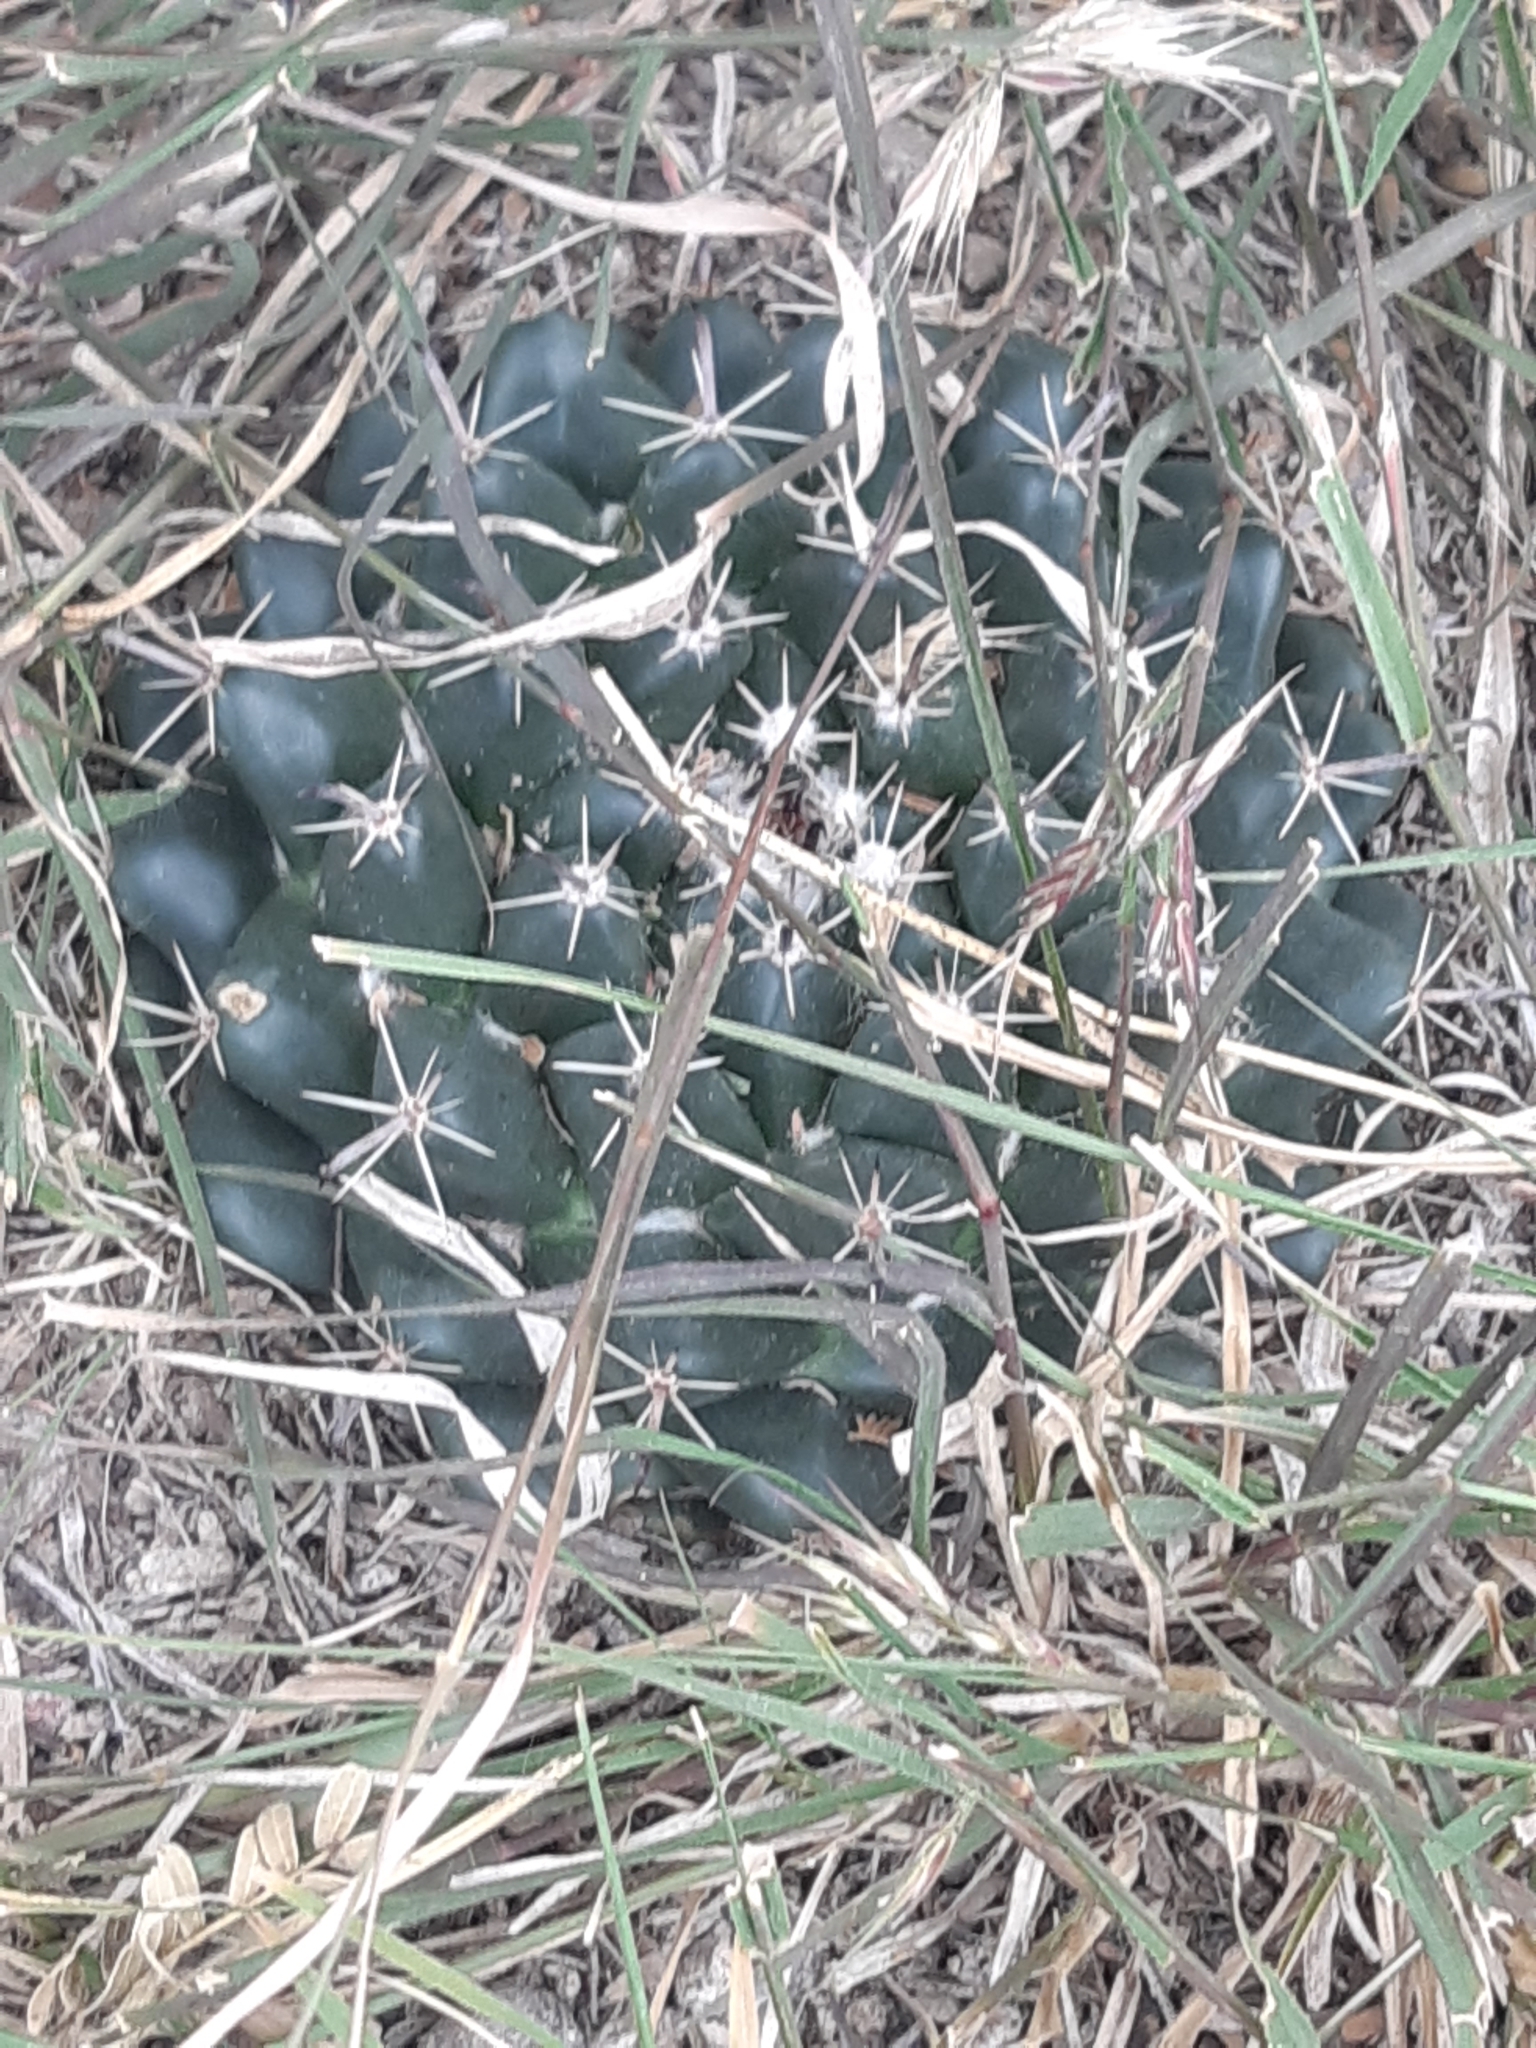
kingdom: Plantae
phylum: Tracheophyta
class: Magnoliopsida
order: Caryophyllales
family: Cactaceae
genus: Mammillaria
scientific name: Mammillaria uncinata
